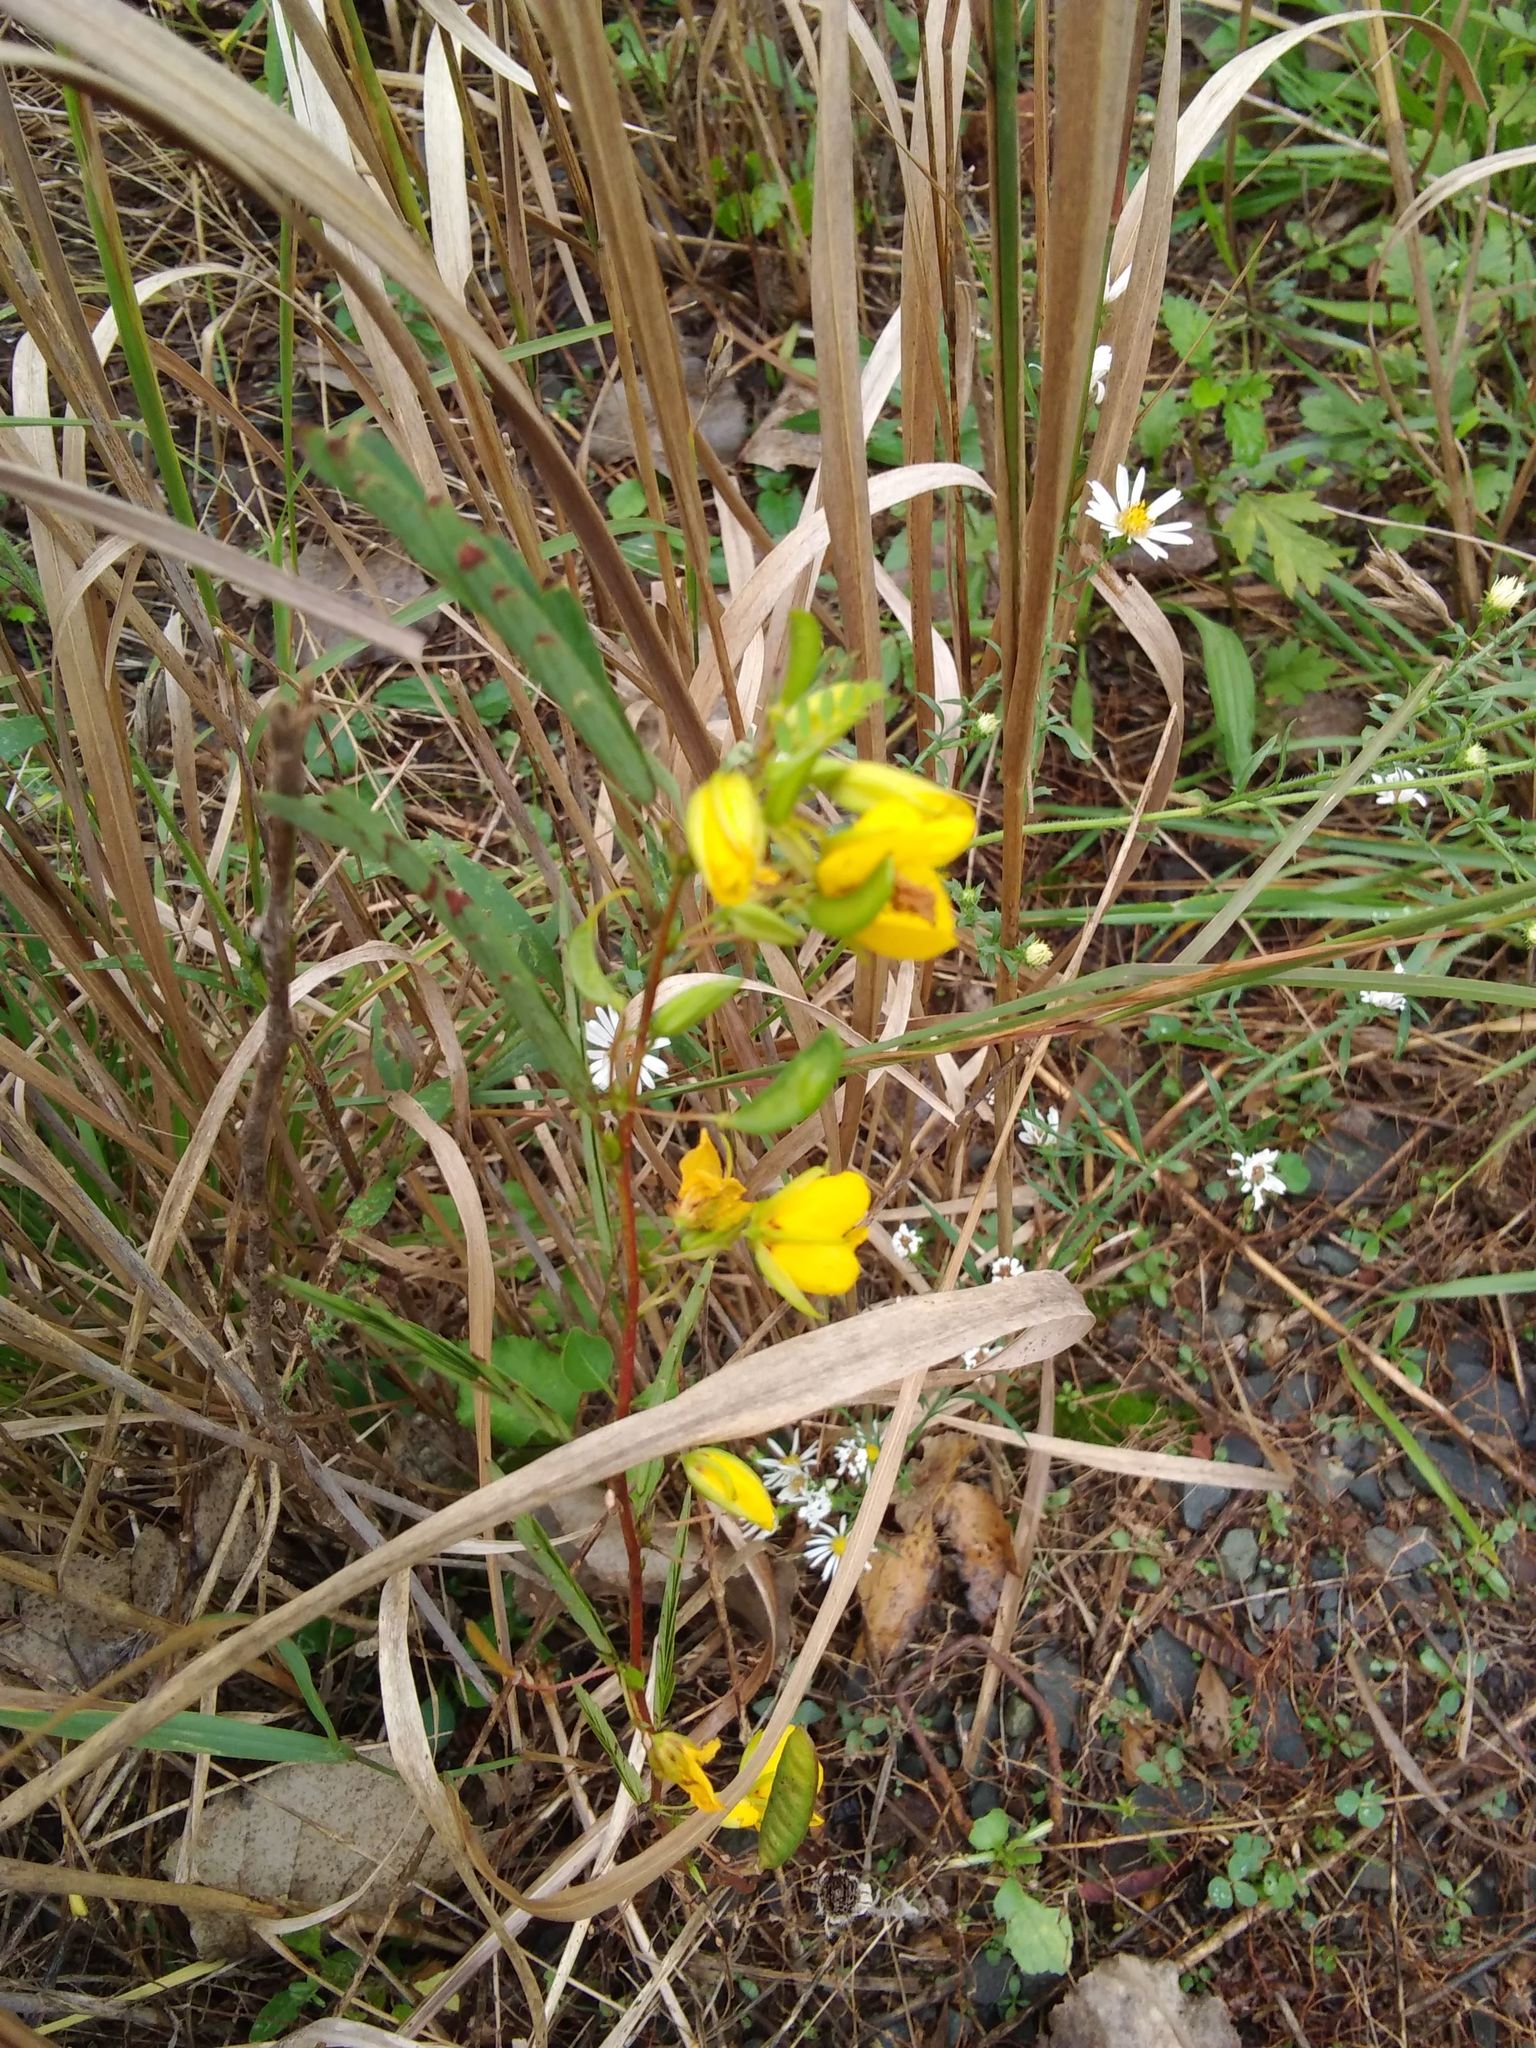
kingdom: Plantae
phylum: Tracheophyta
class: Magnoliopsida
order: Fabales
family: Fabaceae
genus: Chamaecrista
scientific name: Chamaecrista fasciculata
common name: Golden cassia
